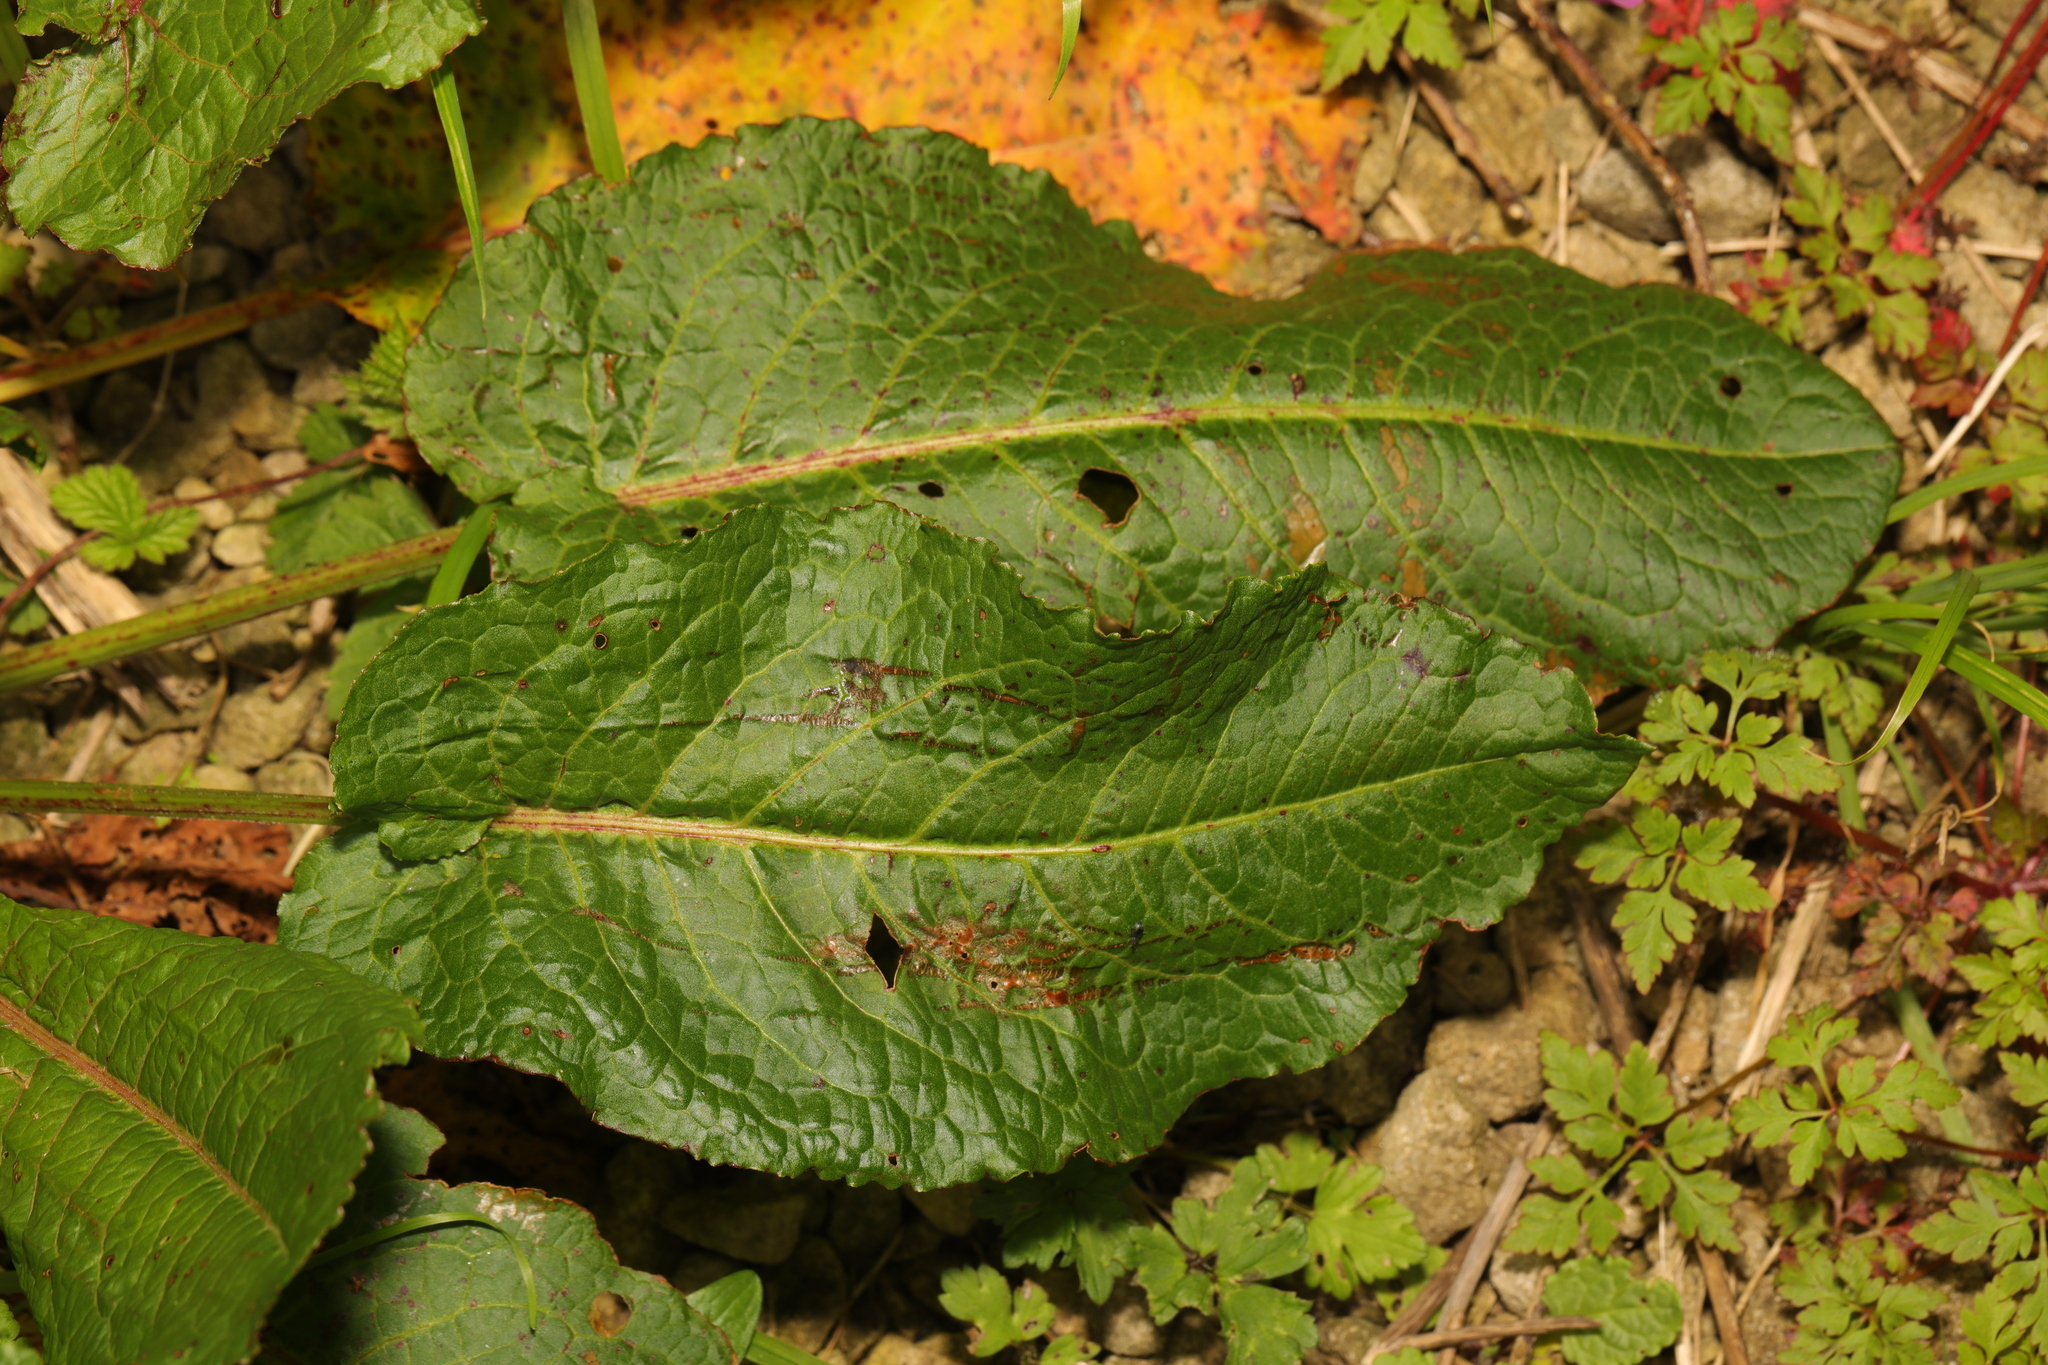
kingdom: Plantae
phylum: Tracheophyta
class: Magnoliopsida
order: Caryophyllales
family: Polygonaceae
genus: Rumex
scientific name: Rumex obtusifolius
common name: Bitter dock
